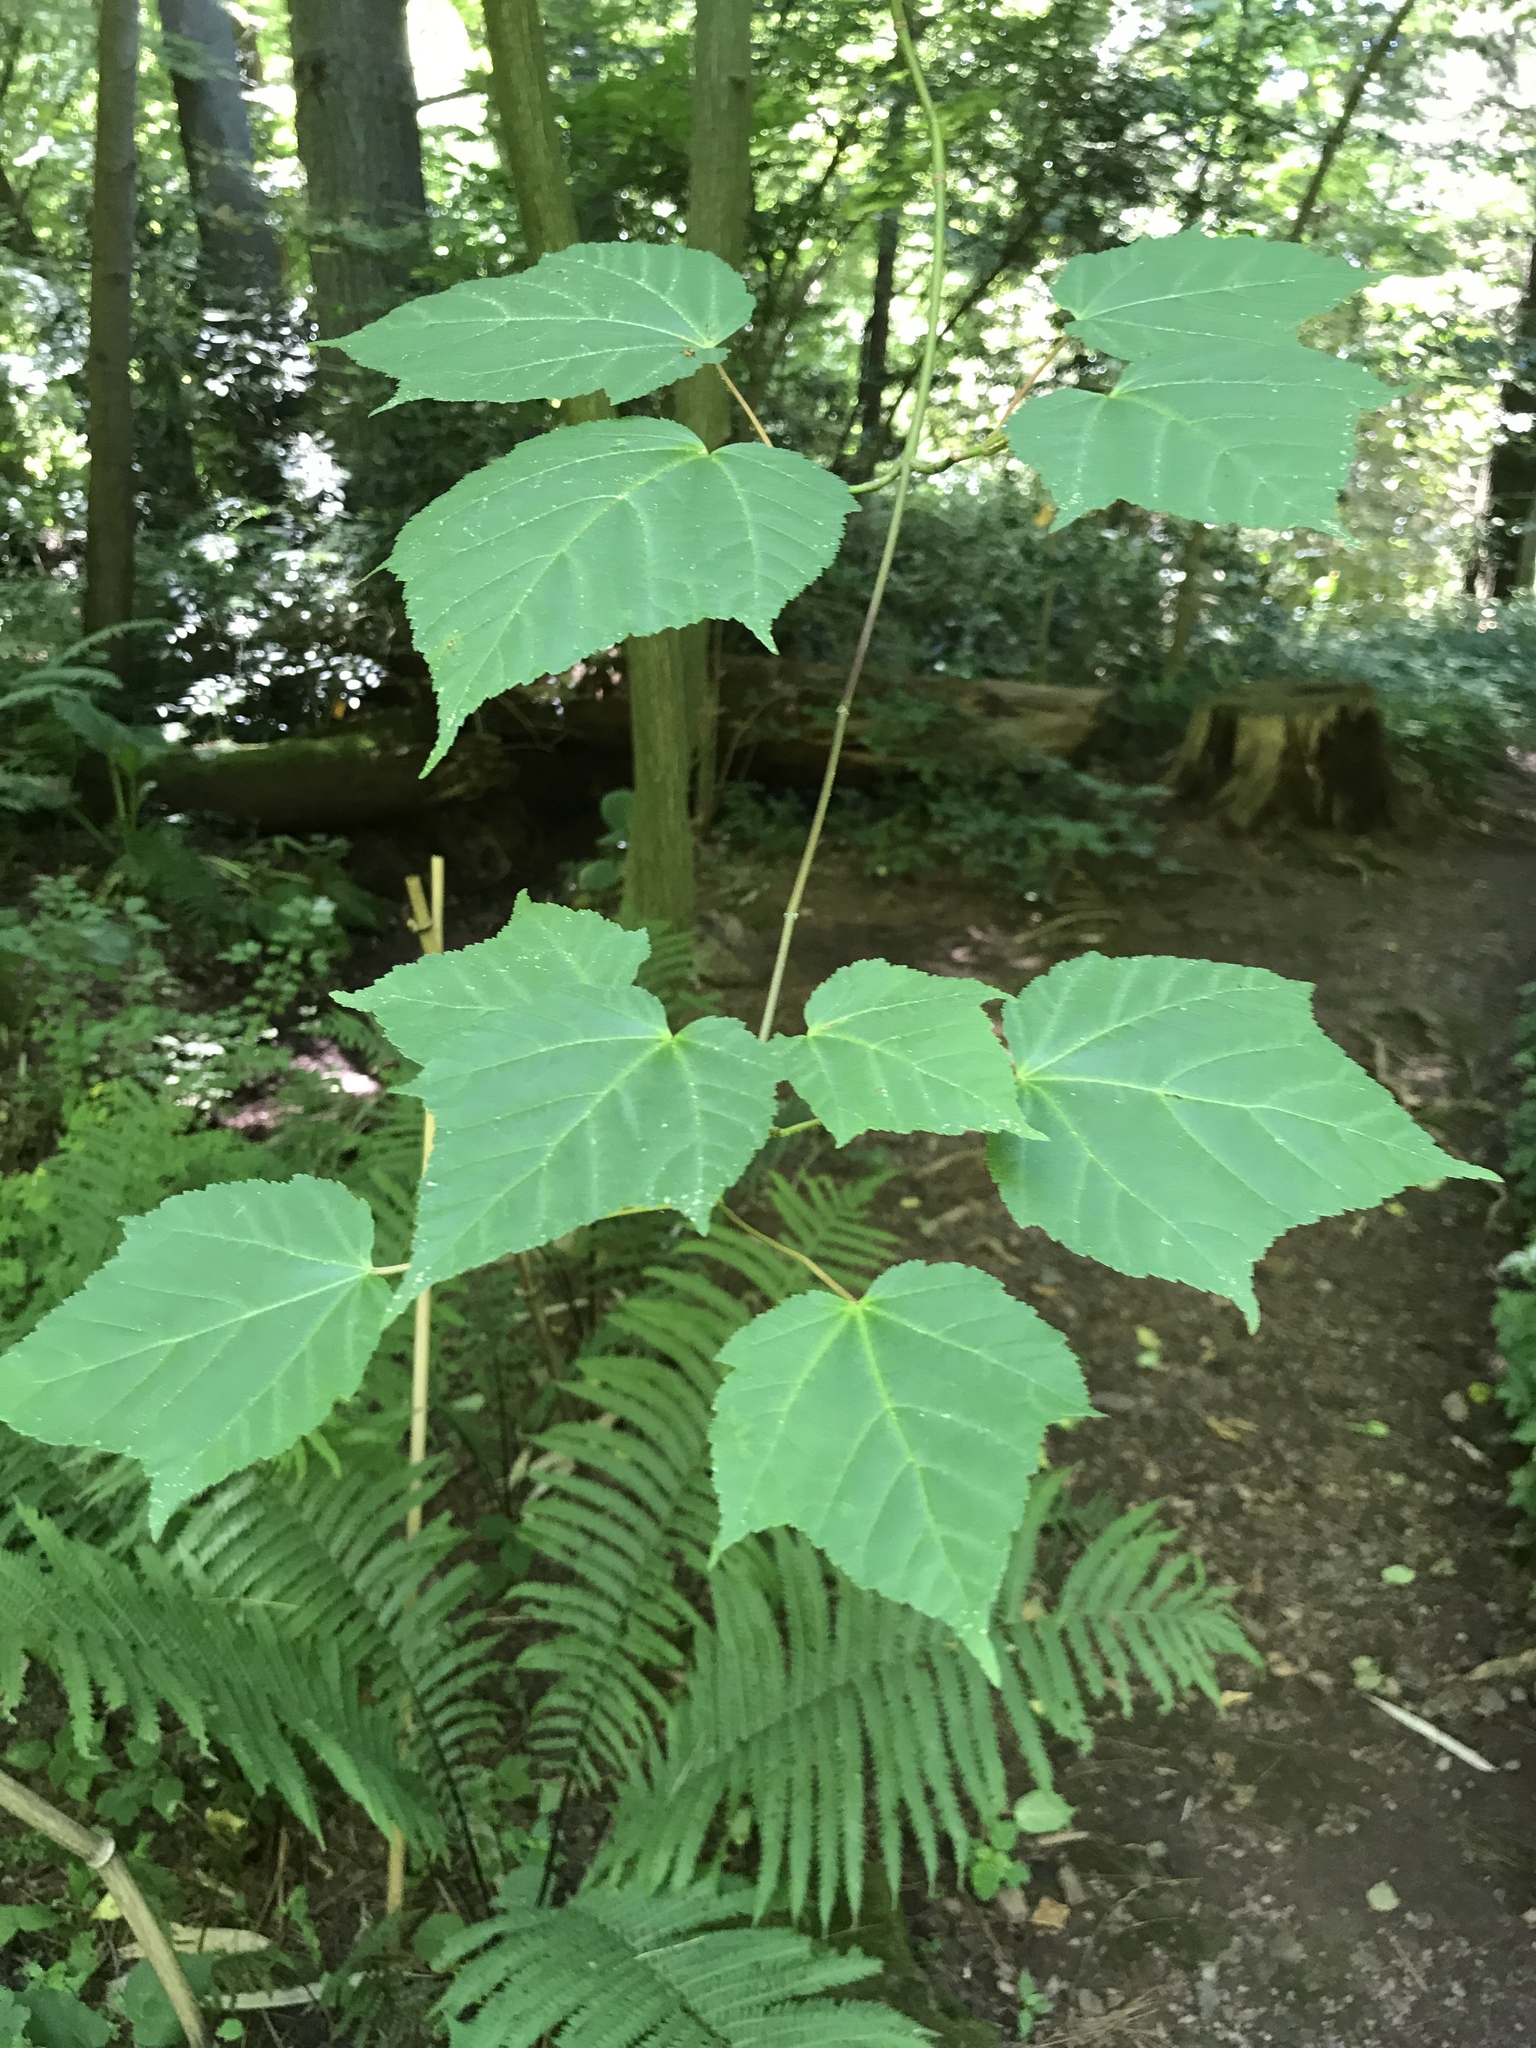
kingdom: Plantae
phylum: Tracheophyta
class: Magnoliopsida
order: Sapindales
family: Sapindaceae
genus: Acer
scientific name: Acer pensylvanicum
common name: Moosewood
